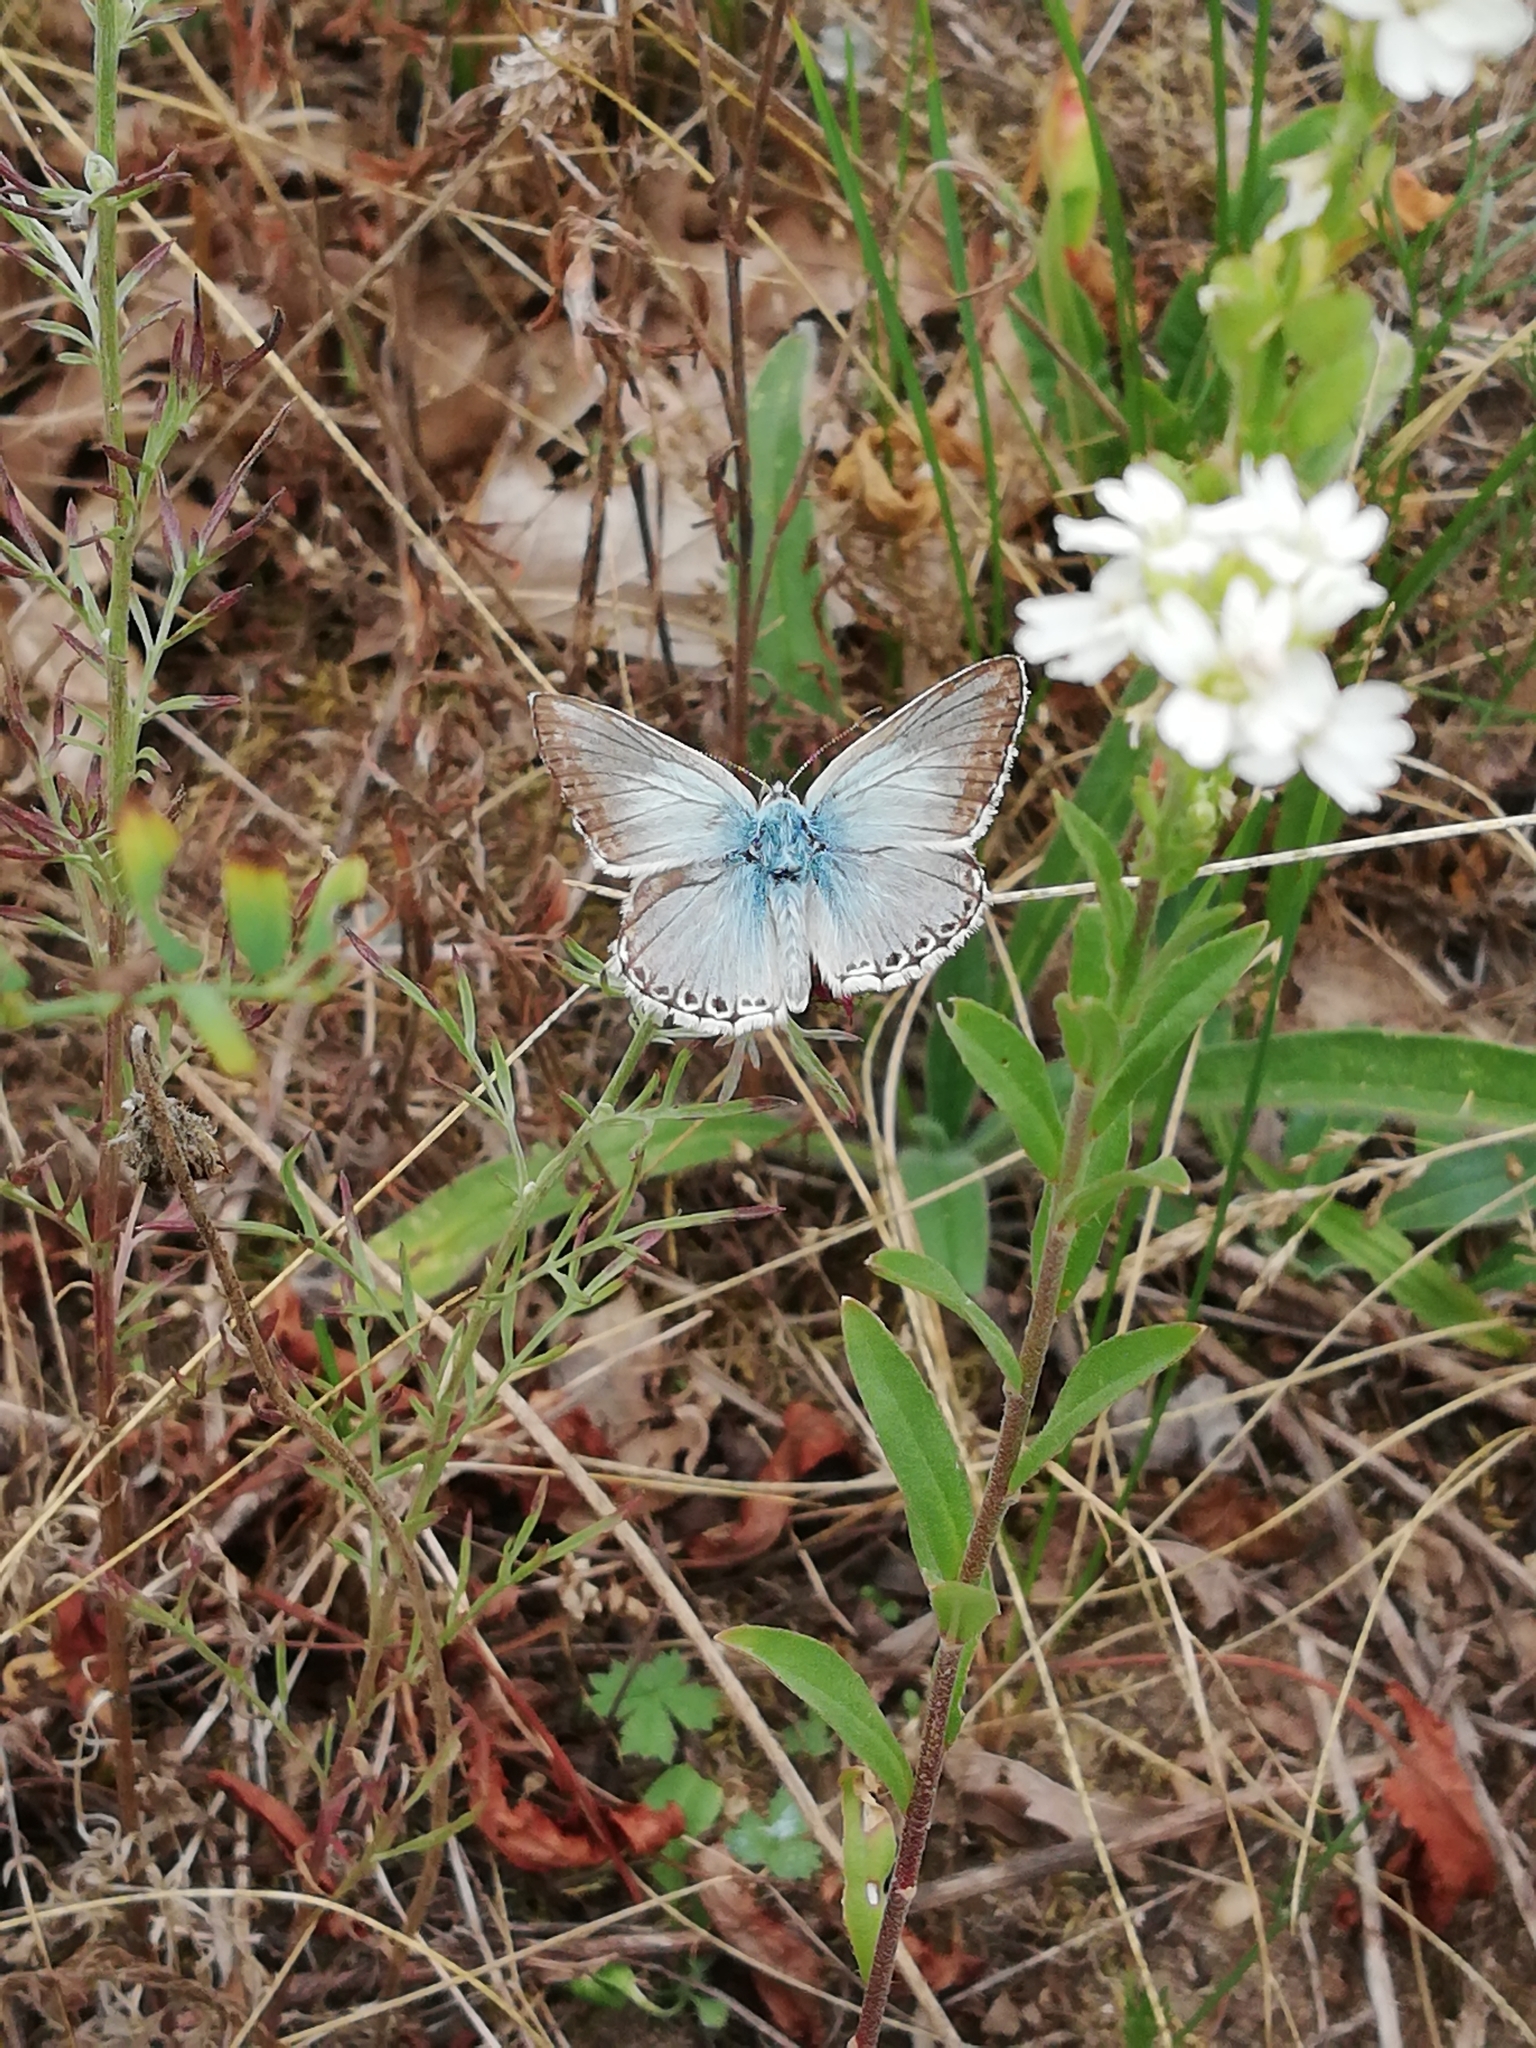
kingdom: Animalia
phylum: Arthropoda
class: Insecta
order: Lepidoptera
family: Lycaenidae
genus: Lysandra
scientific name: Lysandra coridon
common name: Chalkhill blue
